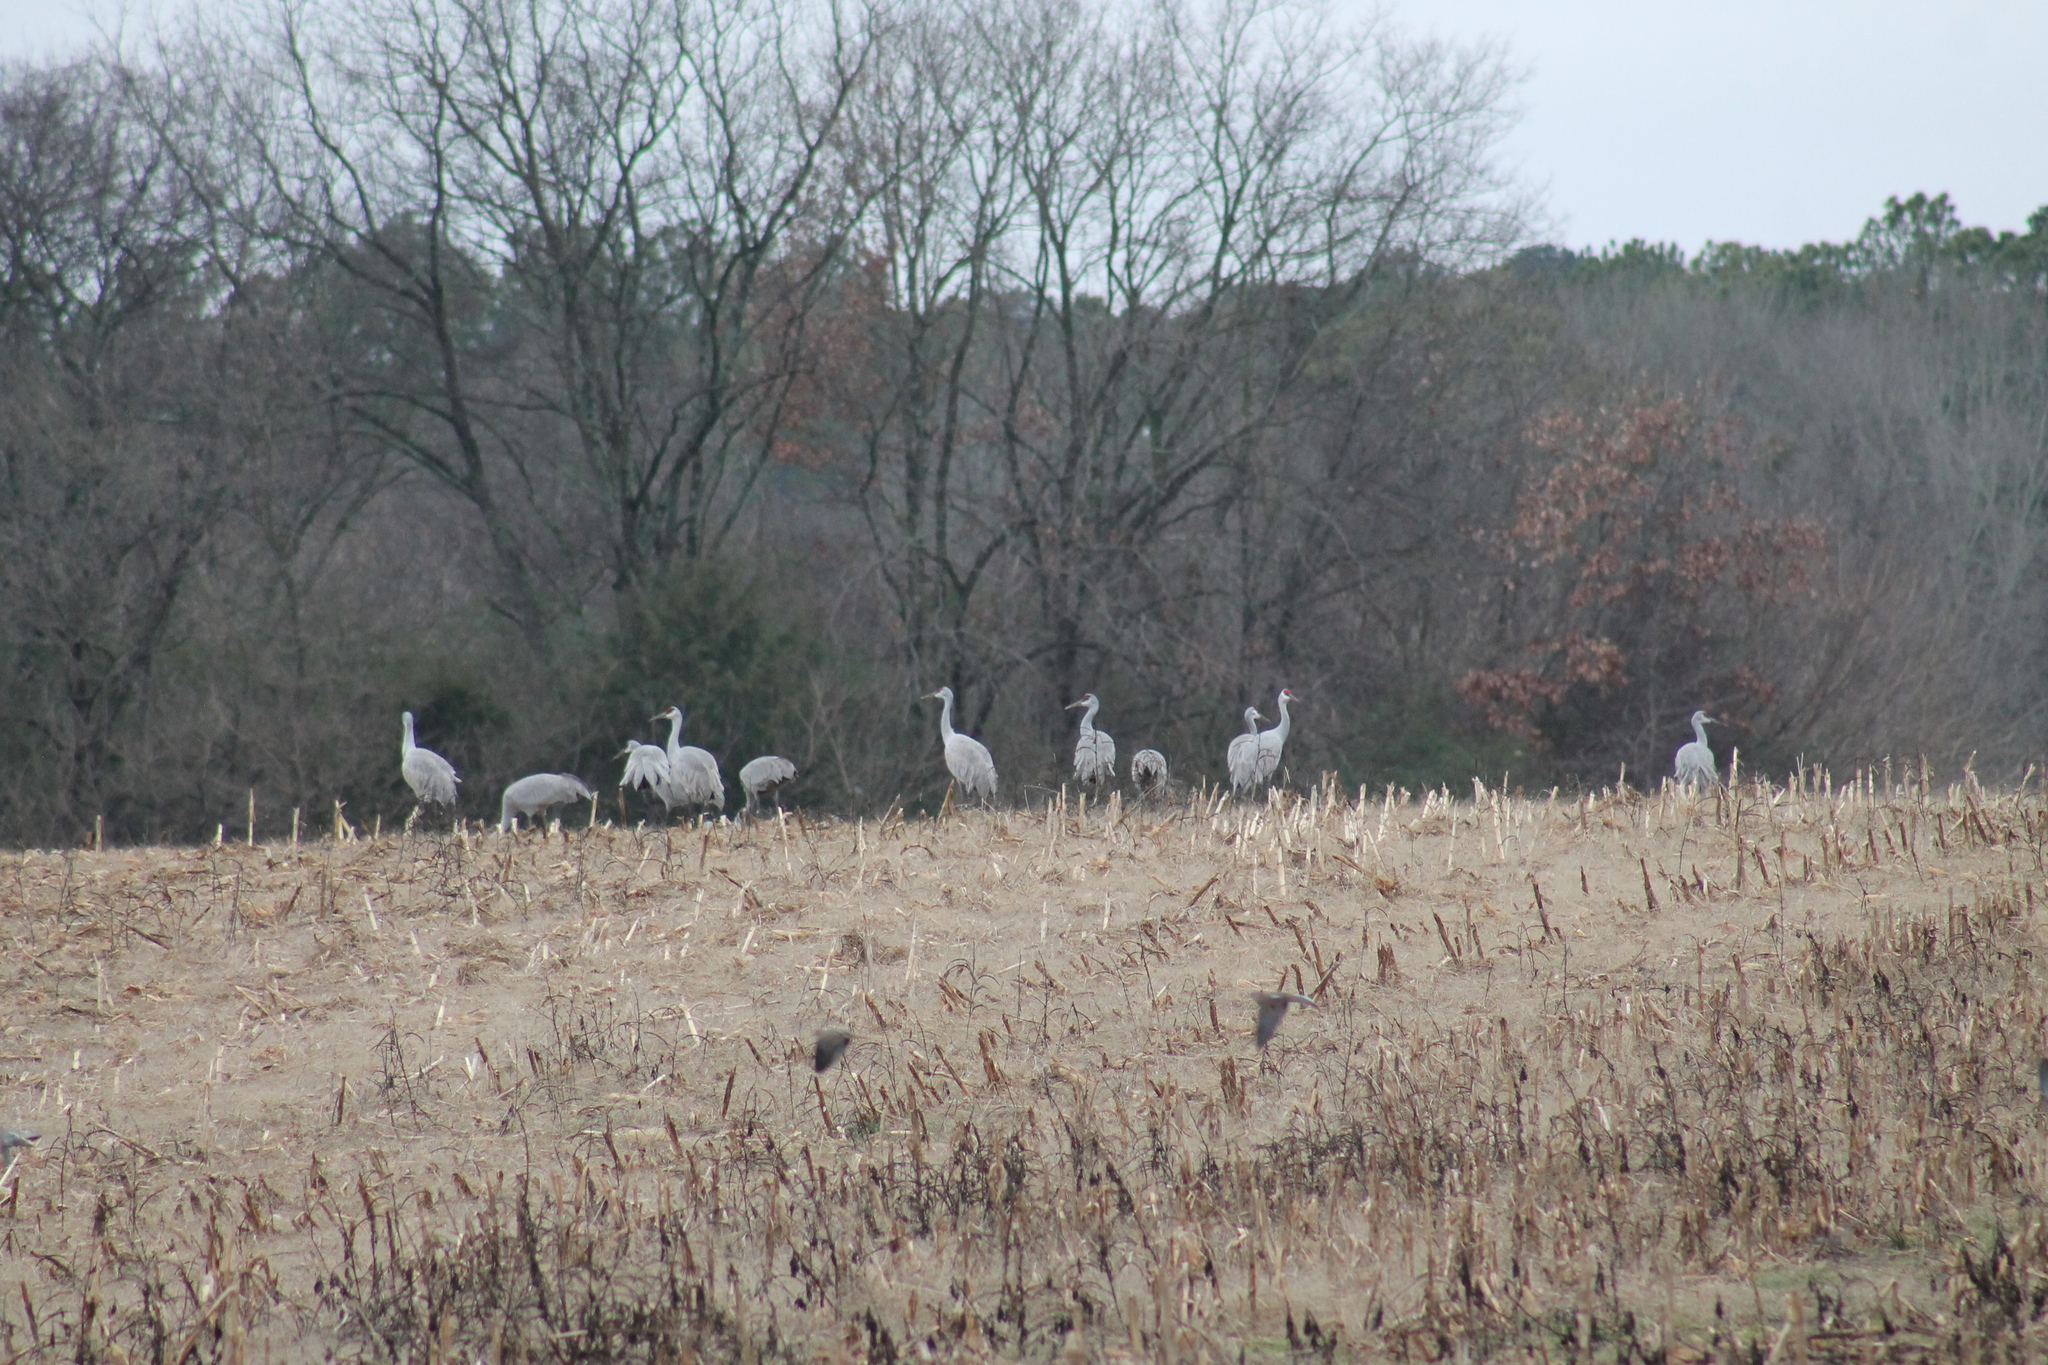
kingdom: Animalia
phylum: Chordata
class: Aves
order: Gruiformes
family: Gruidae
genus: Grus
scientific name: Grus canadensis
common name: Sandhill crane
